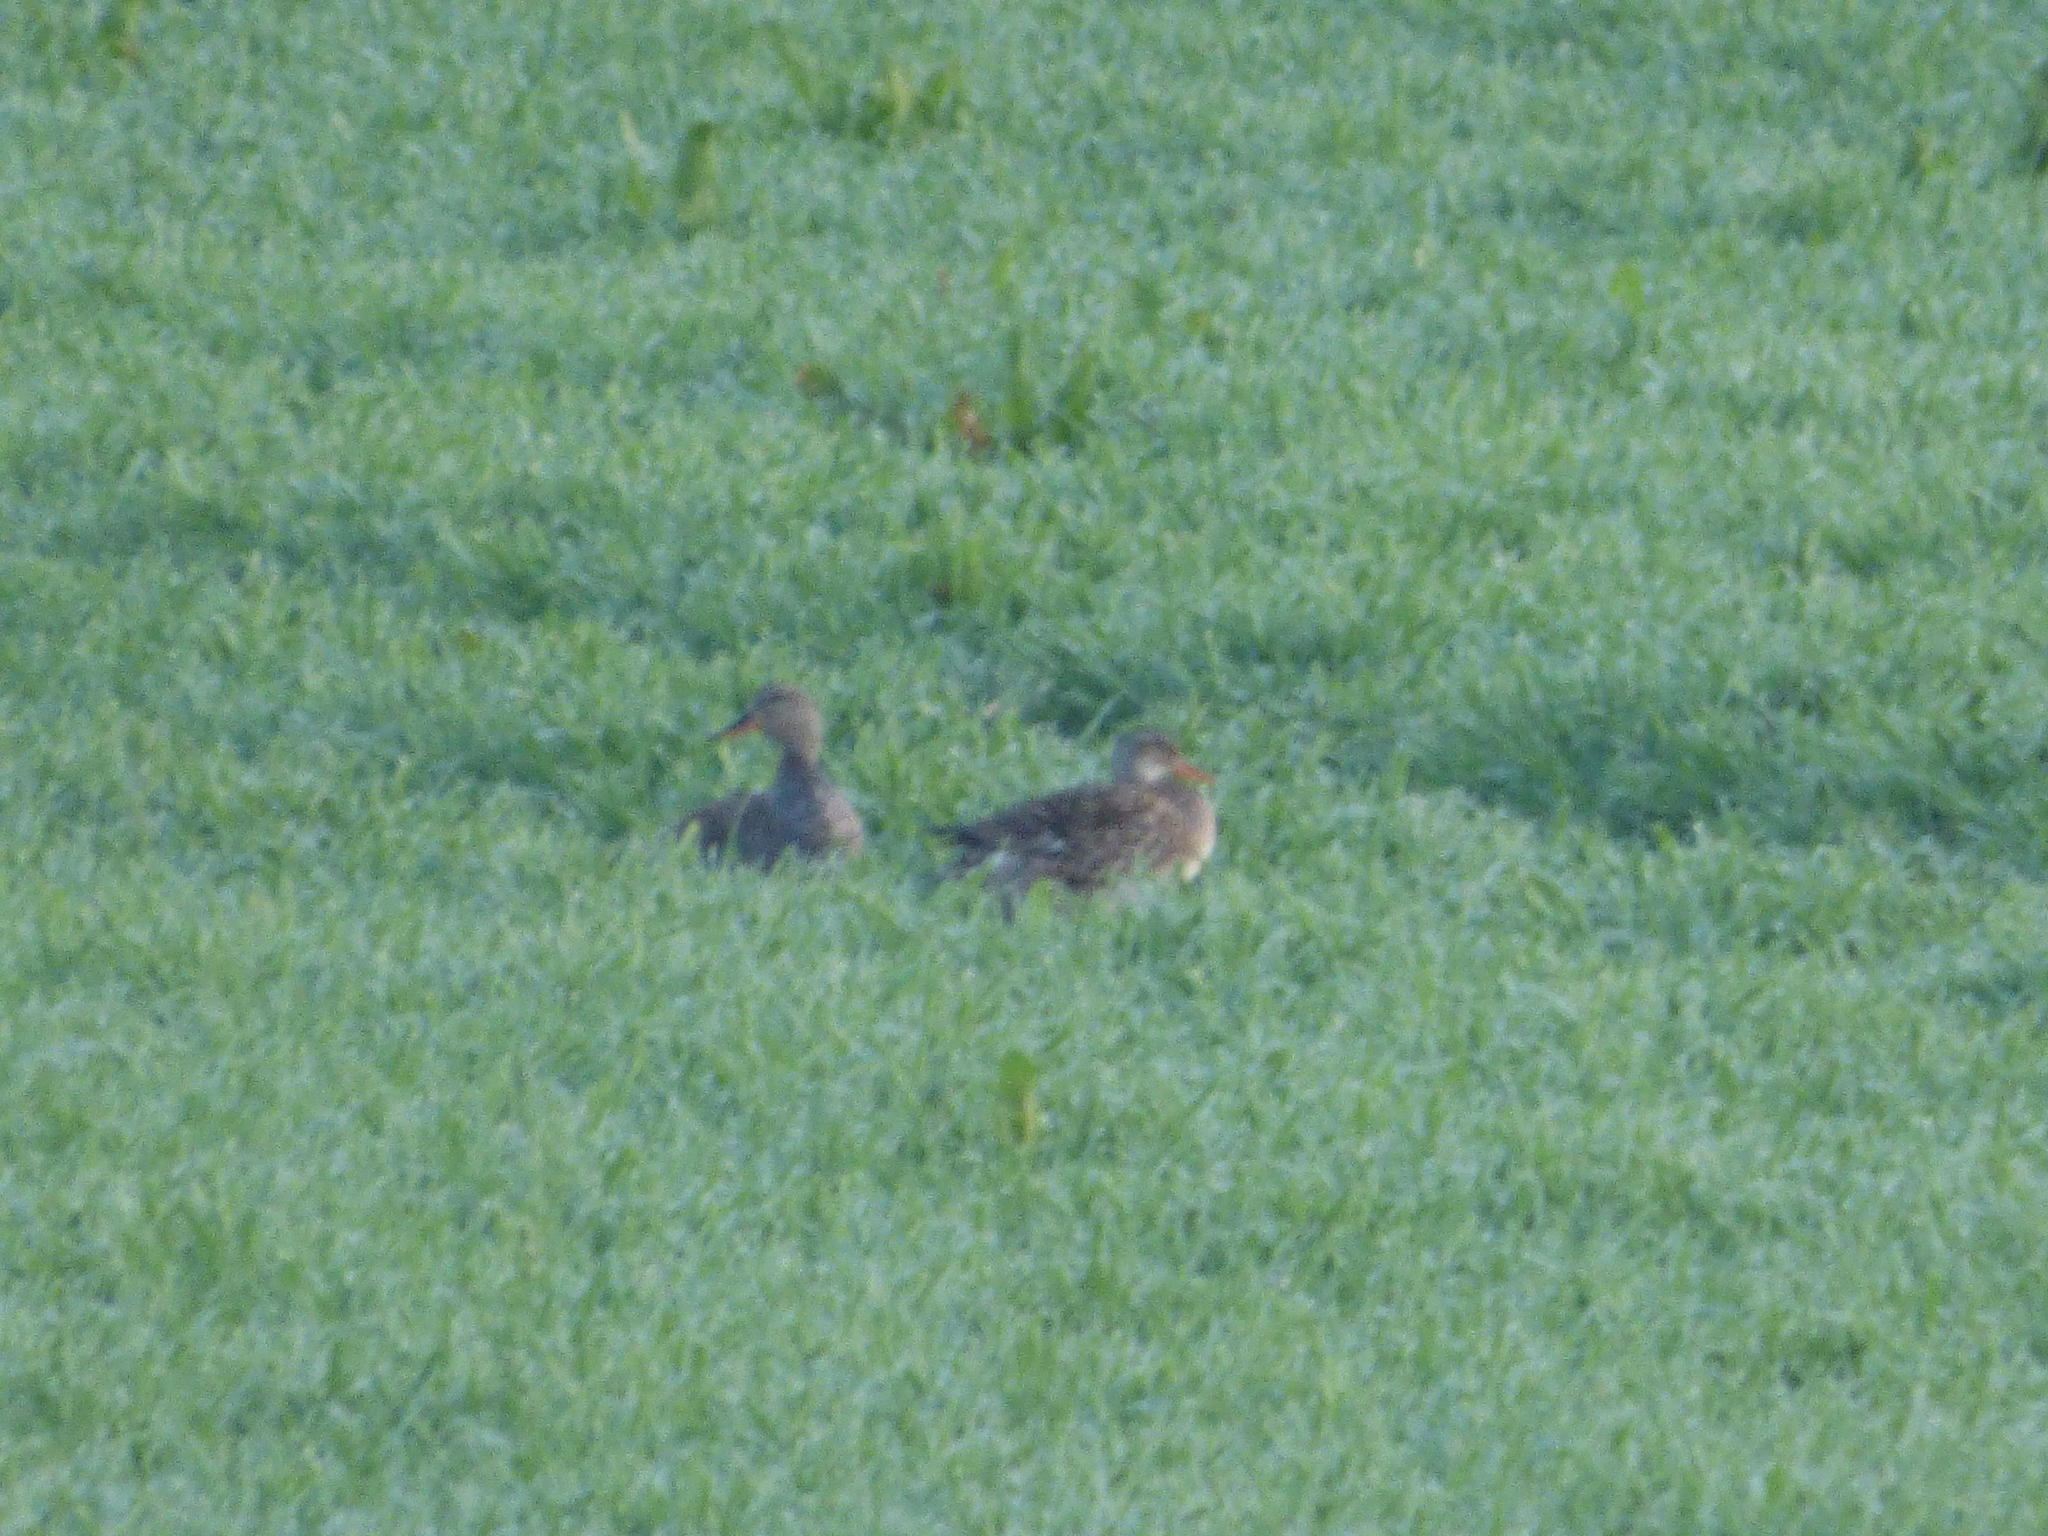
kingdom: Animalia
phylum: Chordata
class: Aves
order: Anseriformes
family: Anatidae
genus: Mareca
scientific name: Mareca strepera
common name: Gadwall
